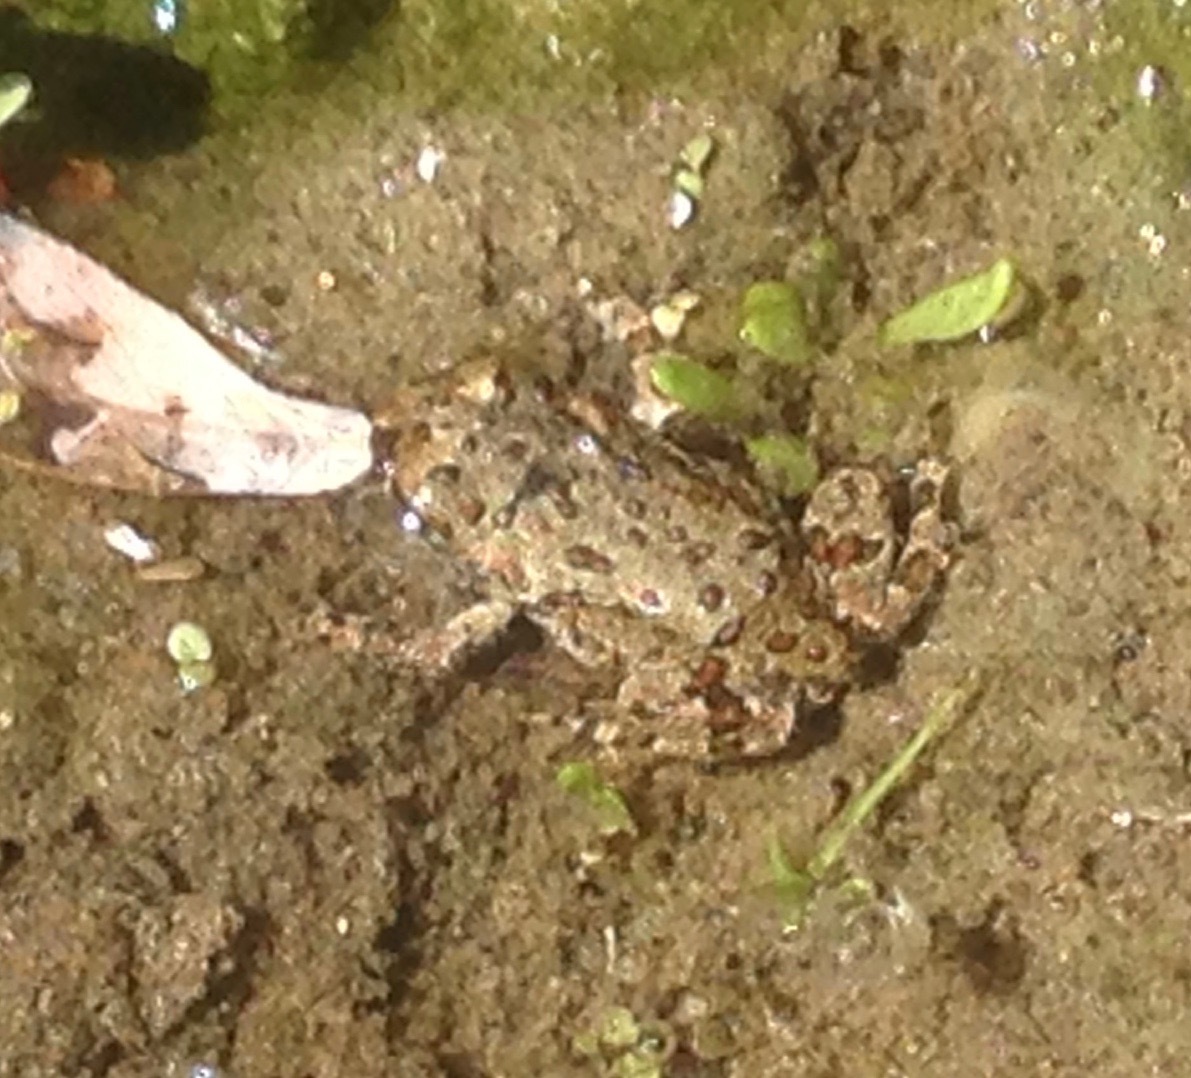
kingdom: Animalia
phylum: Chordata
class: Amphibia
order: Anura
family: Bufonidae
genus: Anaxyrus
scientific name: Anaxyrus boreas
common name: Western toad
